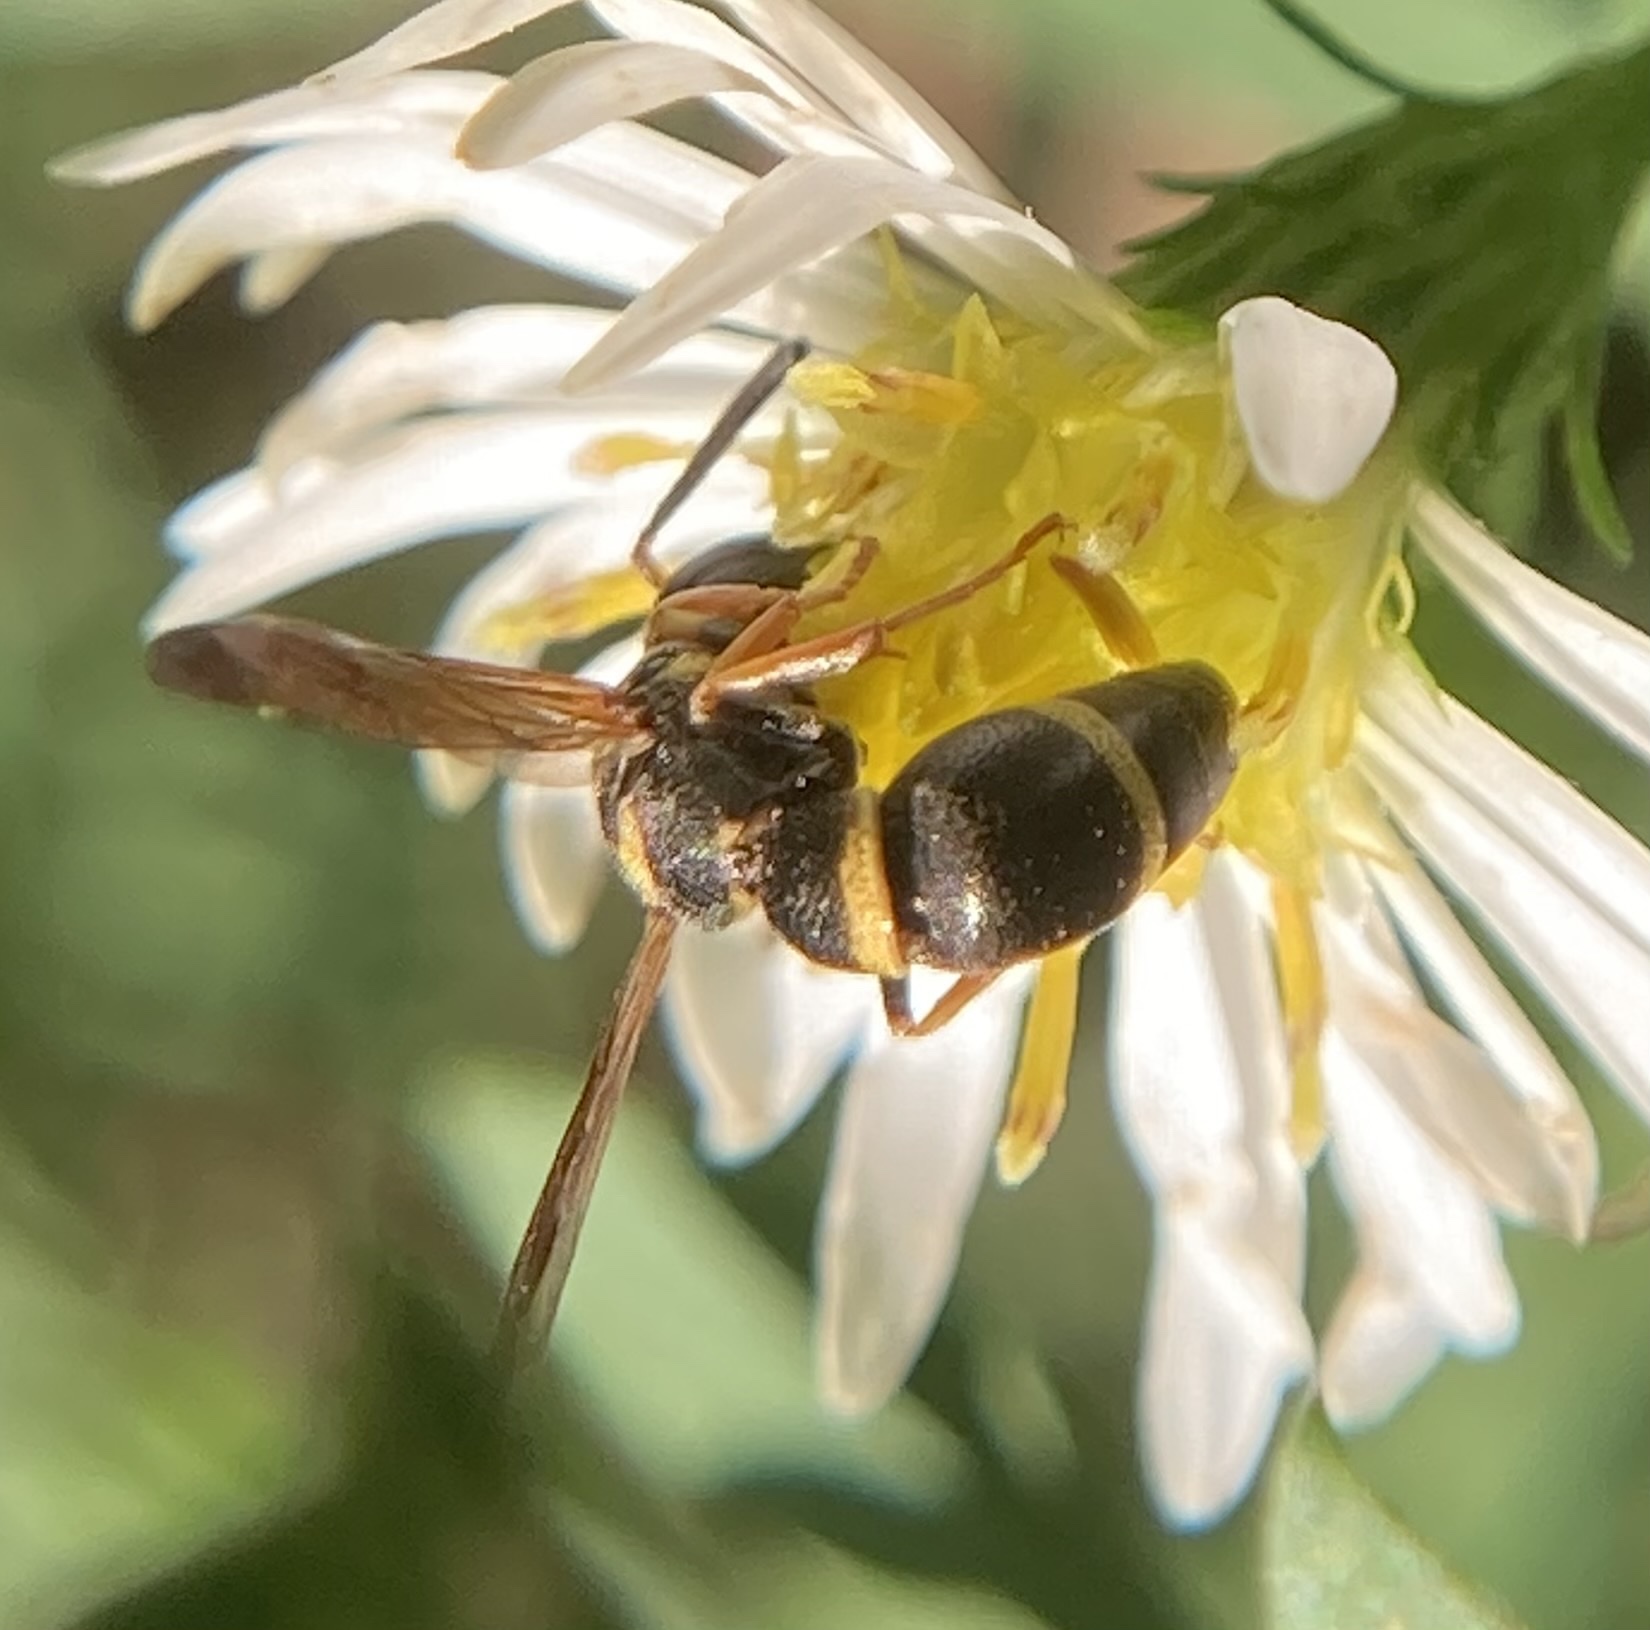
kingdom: Animalia
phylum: Arthropoda
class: Insecta
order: Hymenoptera
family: Eumenidae
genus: Parancistrocerus
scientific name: Parancistrocerus perennis
